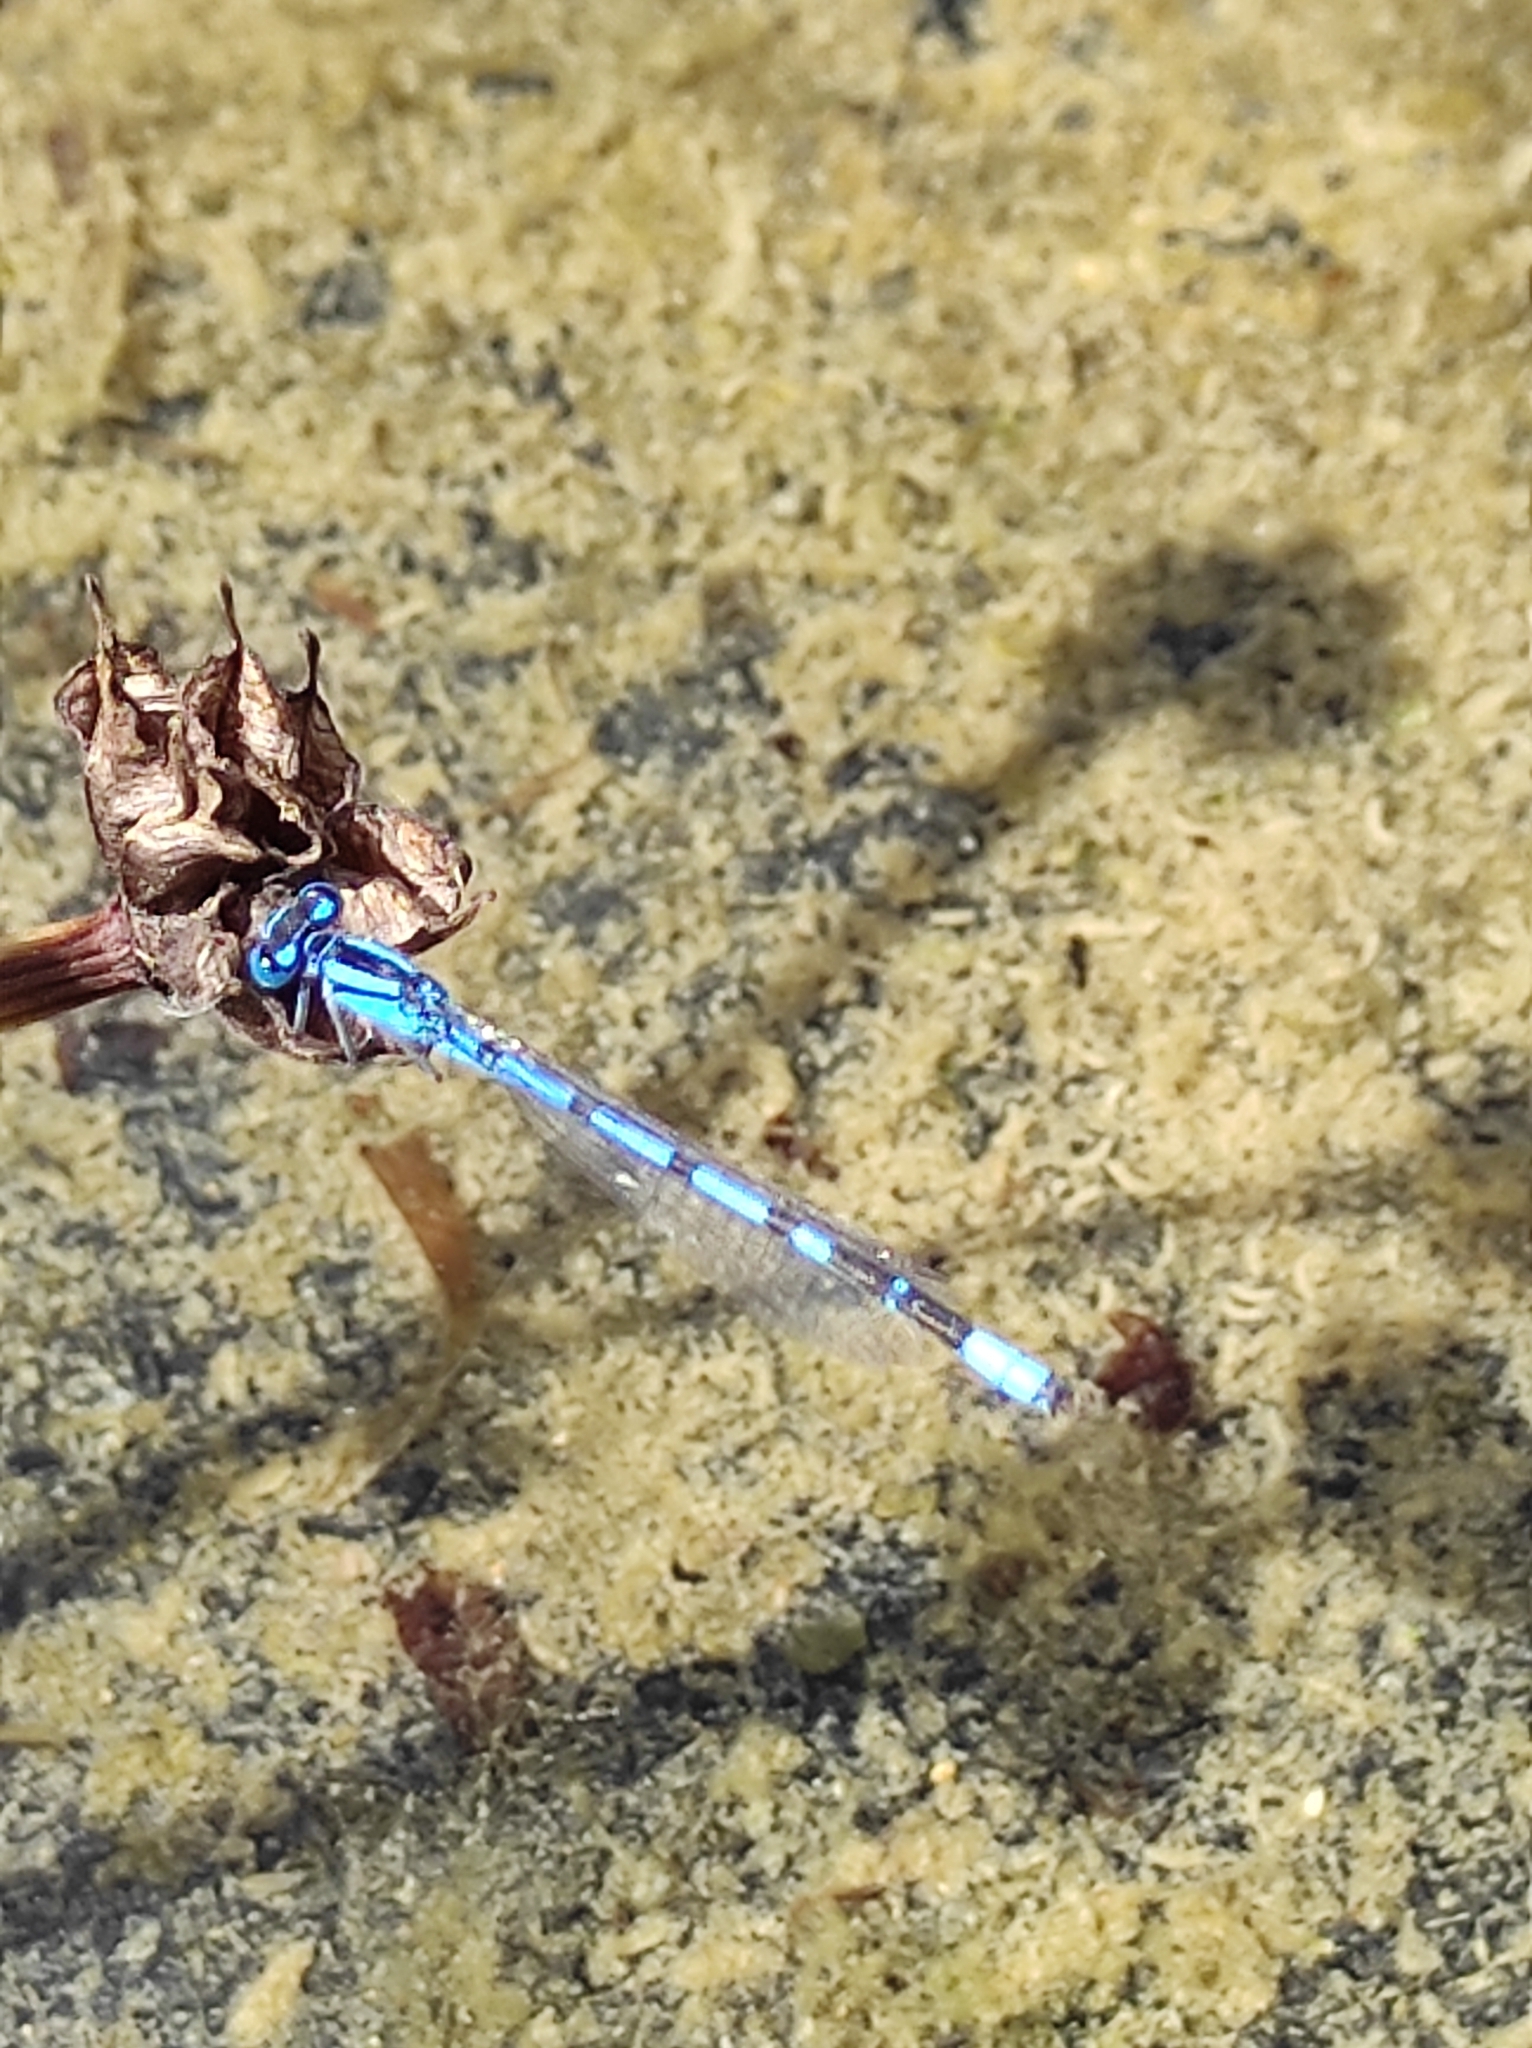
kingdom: Animalia
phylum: Arthropoda
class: Insecta
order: Odonata
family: Coenagrionidae
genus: Enallagma
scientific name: Enallagma cyathigerum
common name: Common blue damselfly
